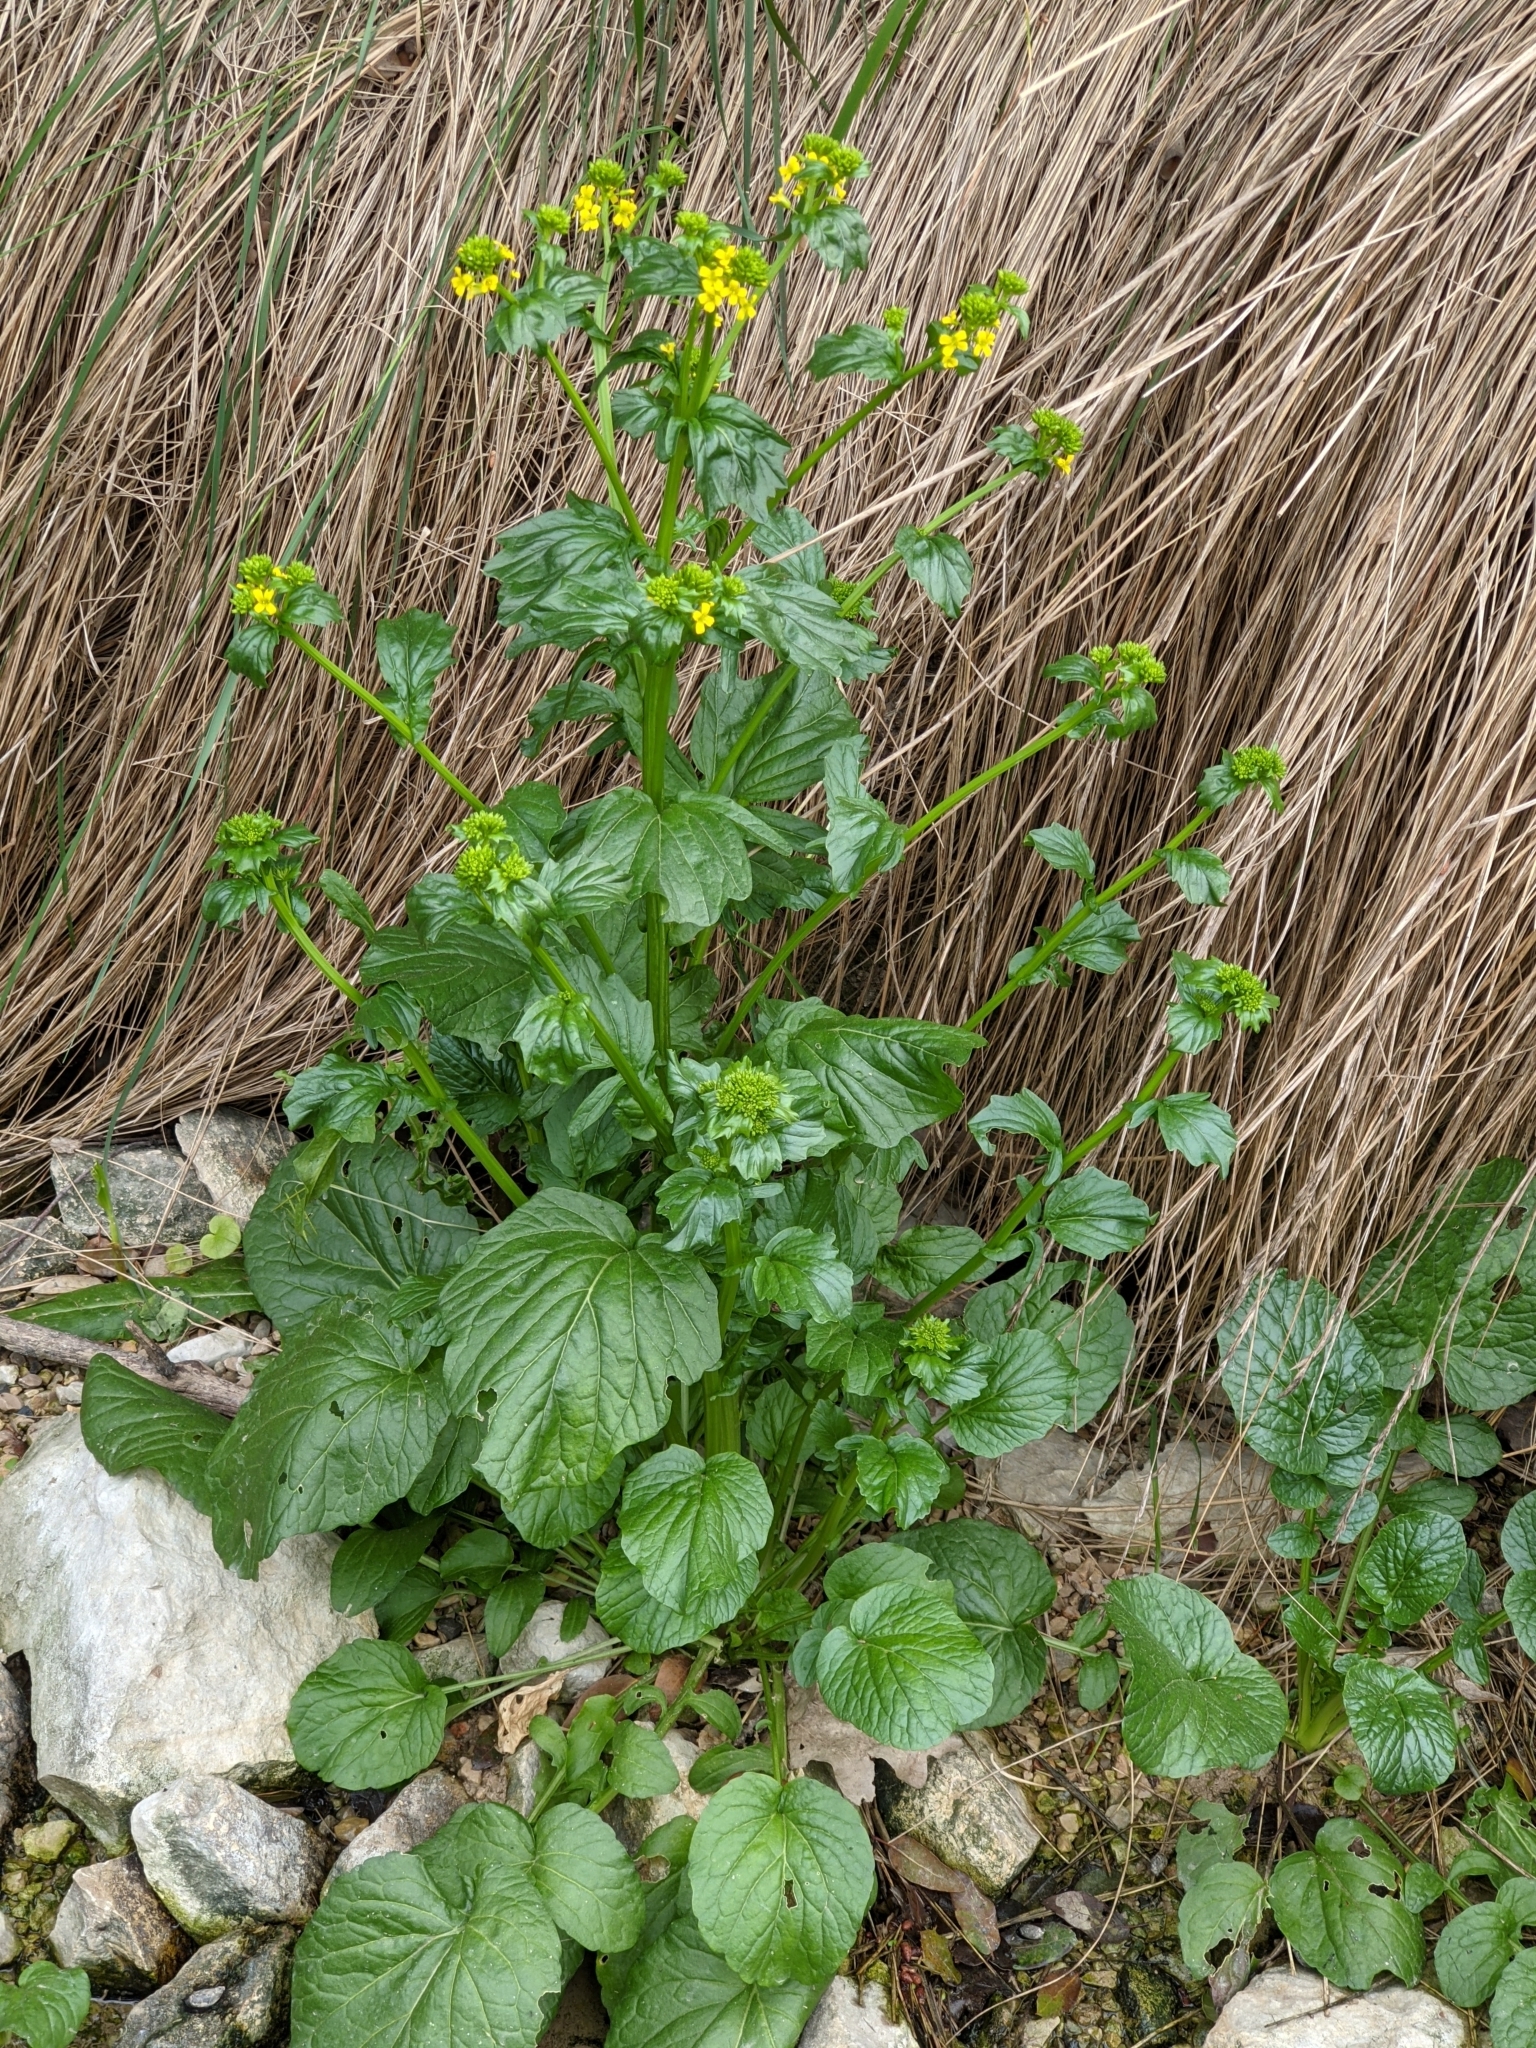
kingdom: Plantae
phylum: Tracheophyta
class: Magnoliopsida
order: Brassicales
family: Brassicaceae
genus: Barbarea
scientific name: Barbarea vulgaris
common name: Cressy-greens
